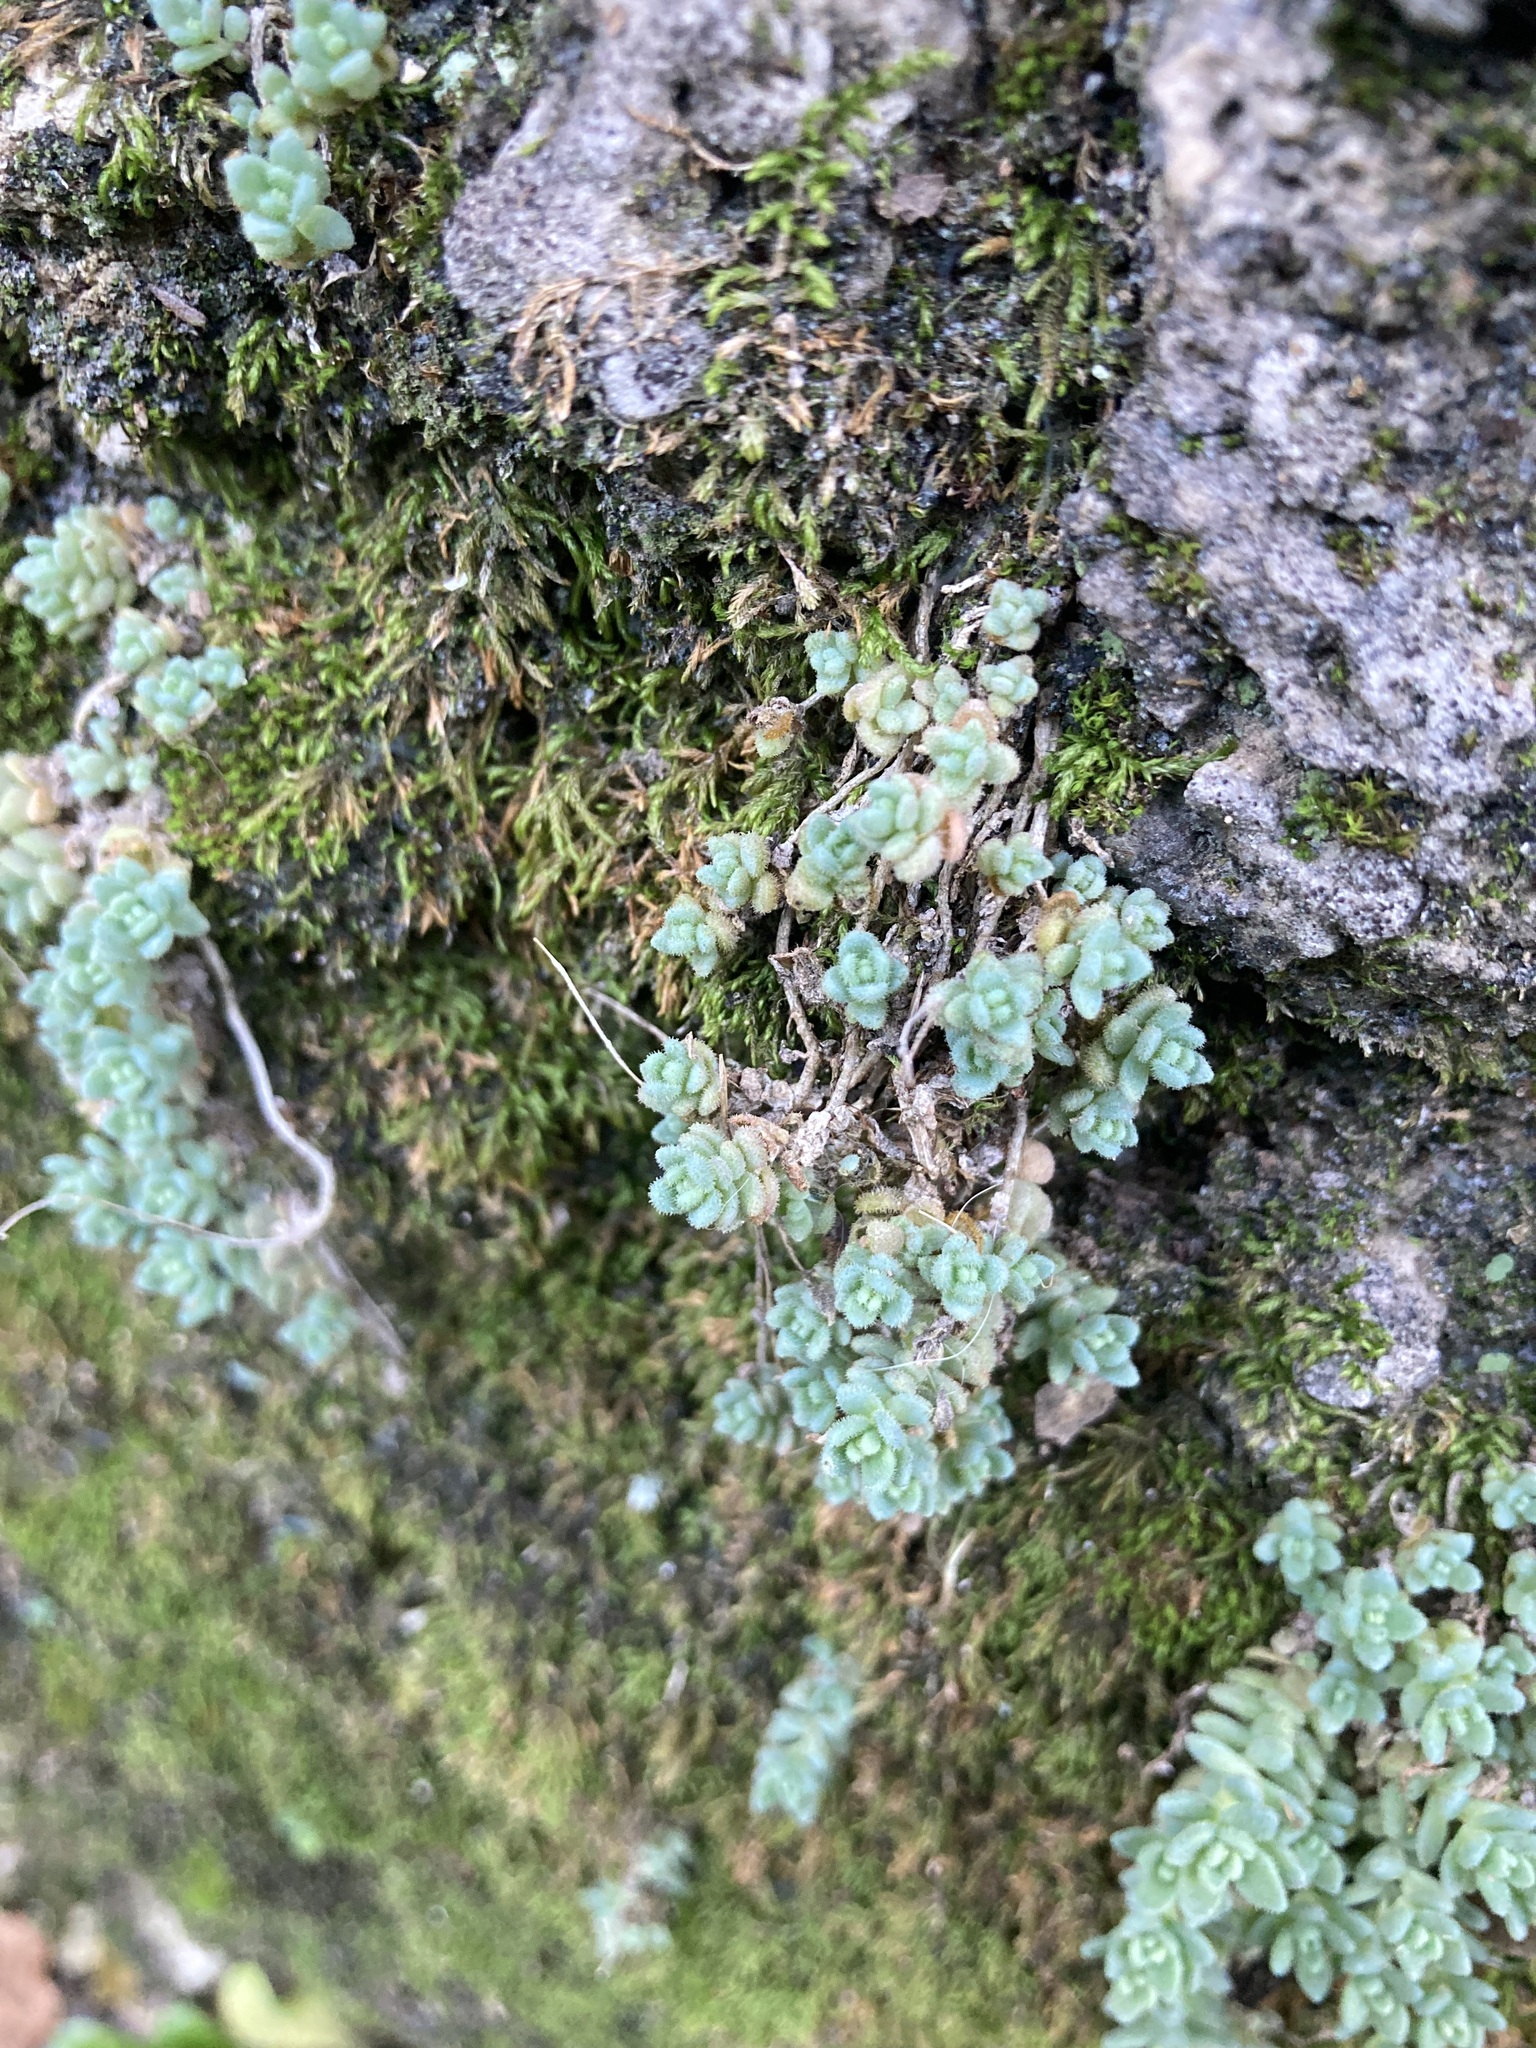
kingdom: Plantae
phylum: Tracheophyta
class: Magnoliopsida
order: Saxifragales
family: Crassulaceae
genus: Sedum
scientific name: Sedum dasyphyllum
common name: Thick-leaf stonecrop
